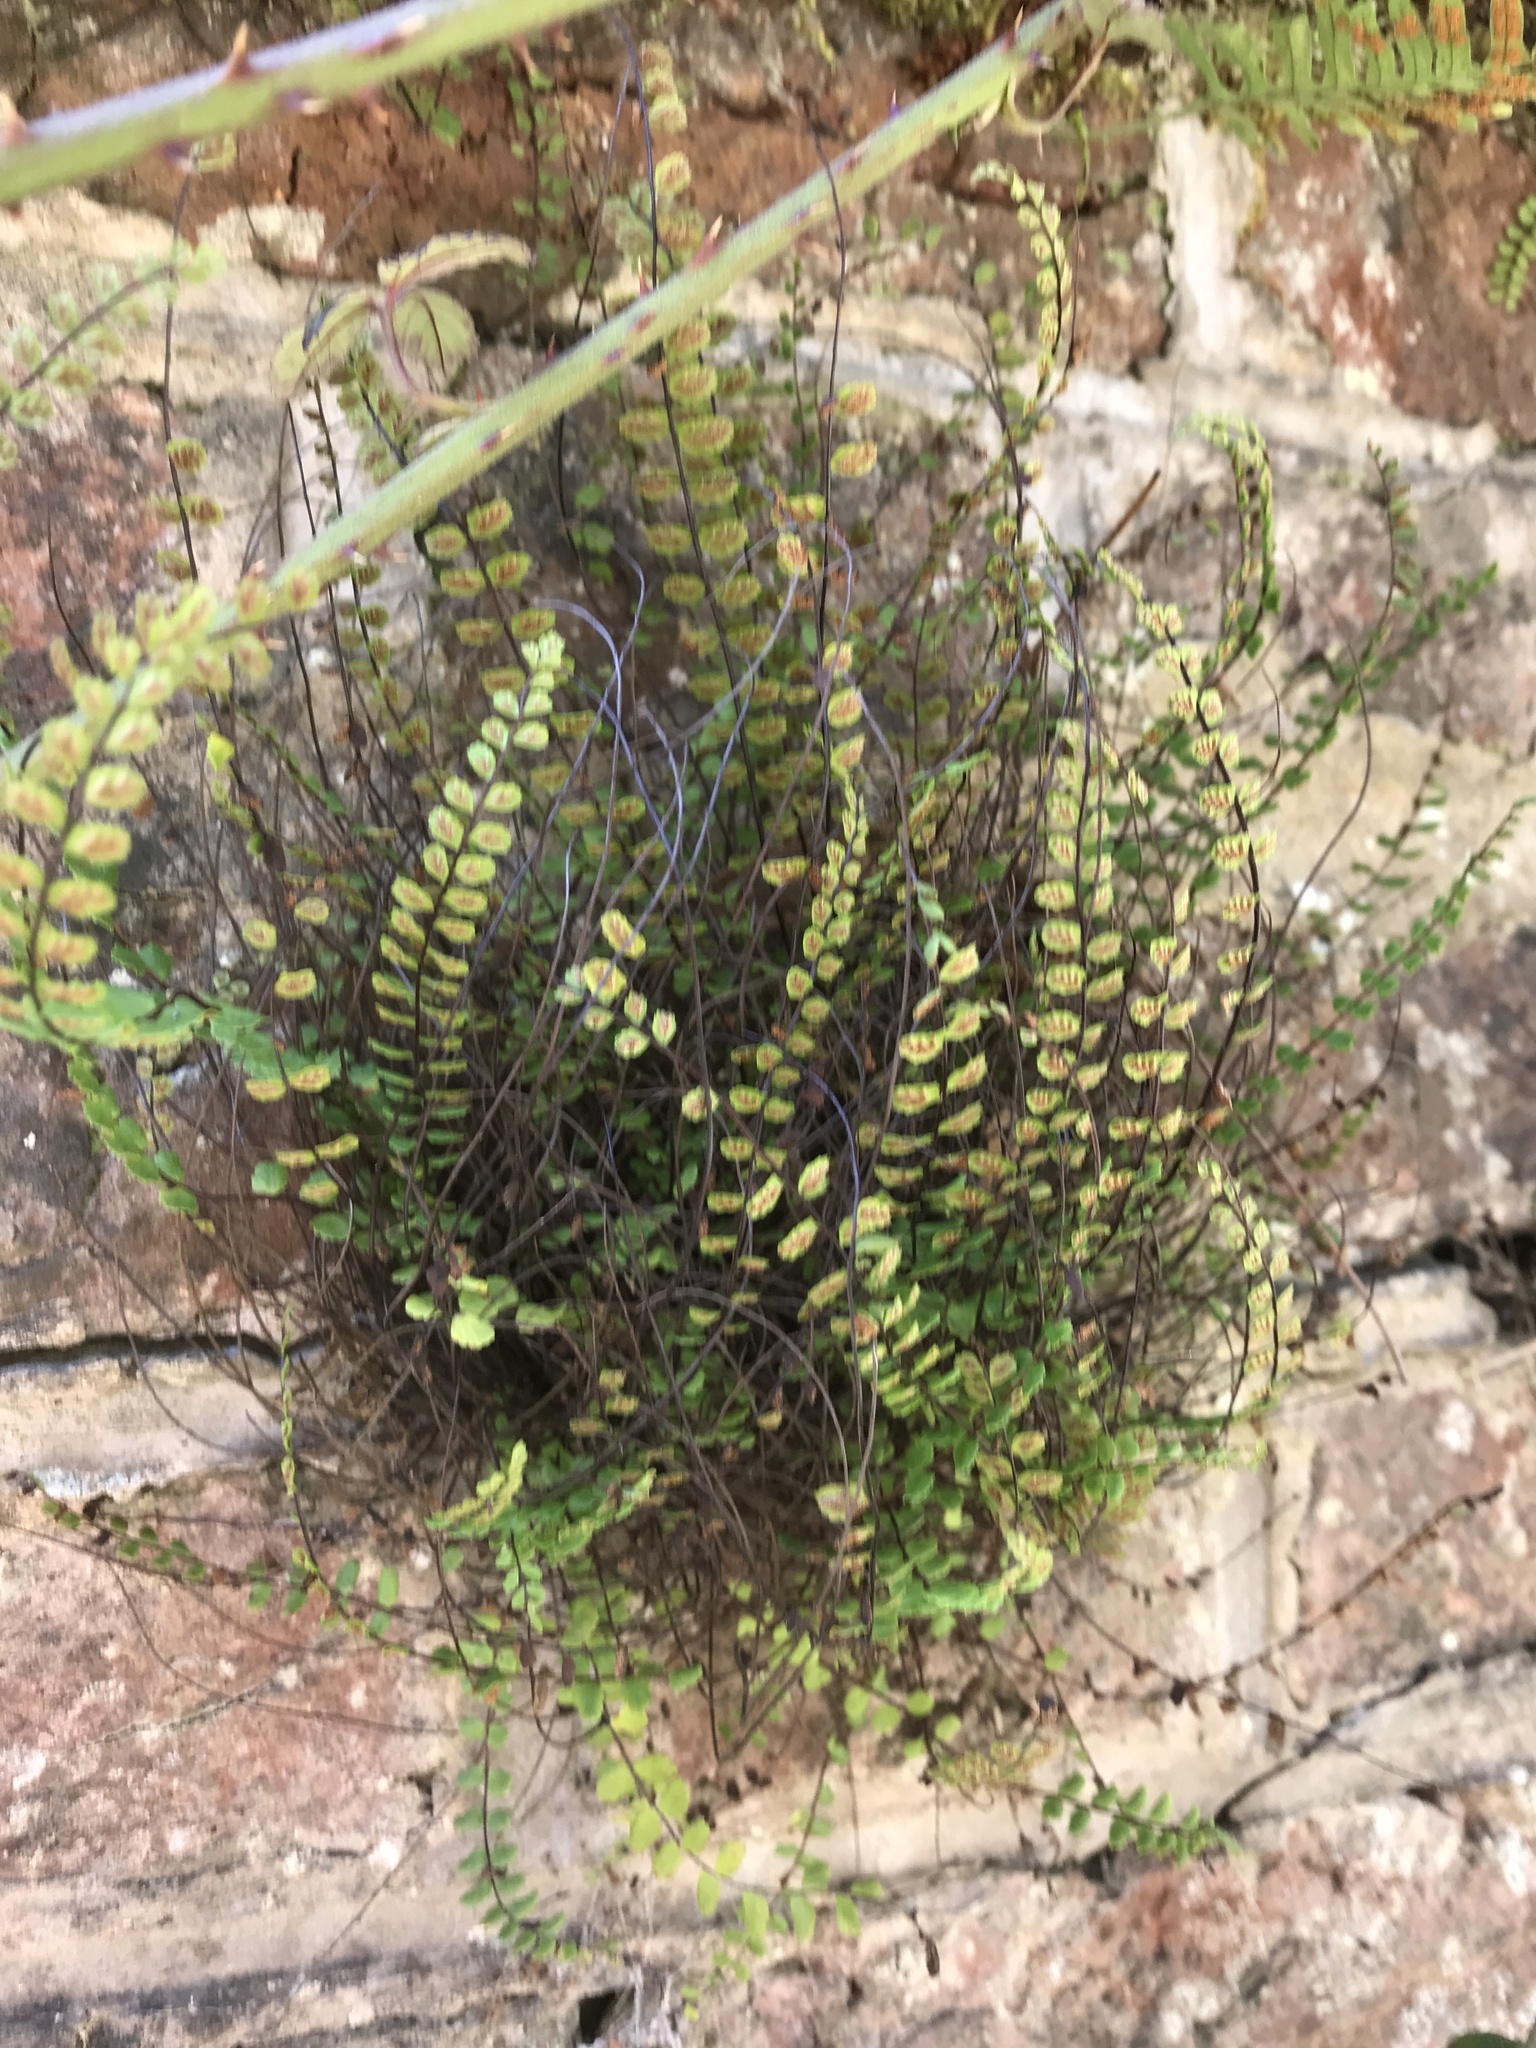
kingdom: Plantae
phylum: Tracheophyta
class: Polypodiopsida
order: Polypodiales
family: Aspleniaceae
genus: Asplenium
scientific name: Asplenium trichomanes
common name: Maidenhair spleenwort
